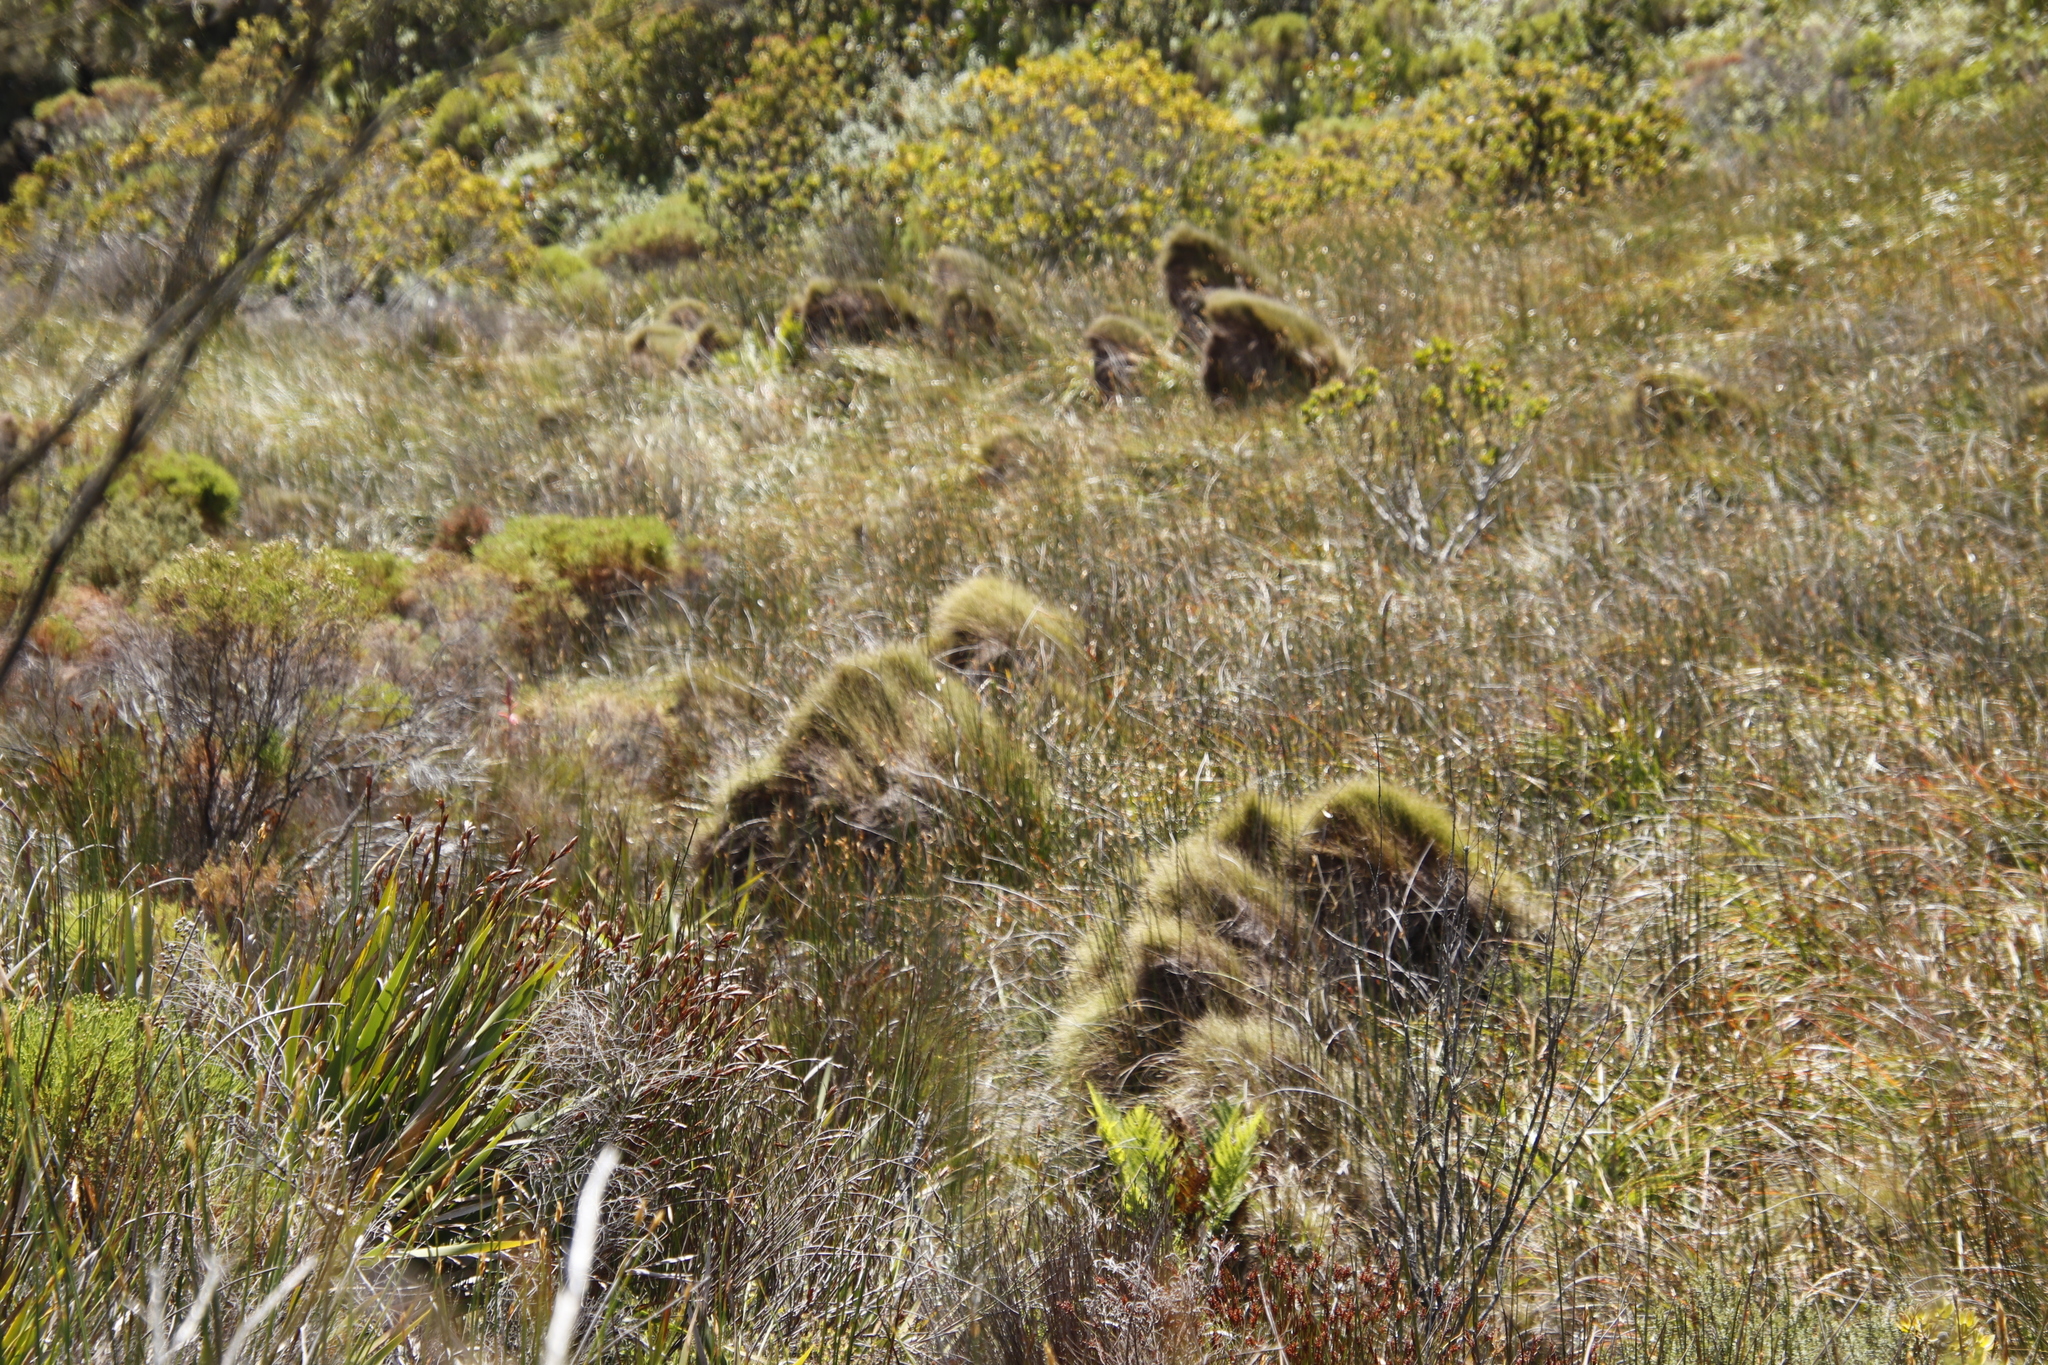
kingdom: Plantae
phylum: Tracheophyta
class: Liliopsida
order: Poales
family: Restionaceae
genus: Anthochortus
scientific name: Anthochortus crinalis
